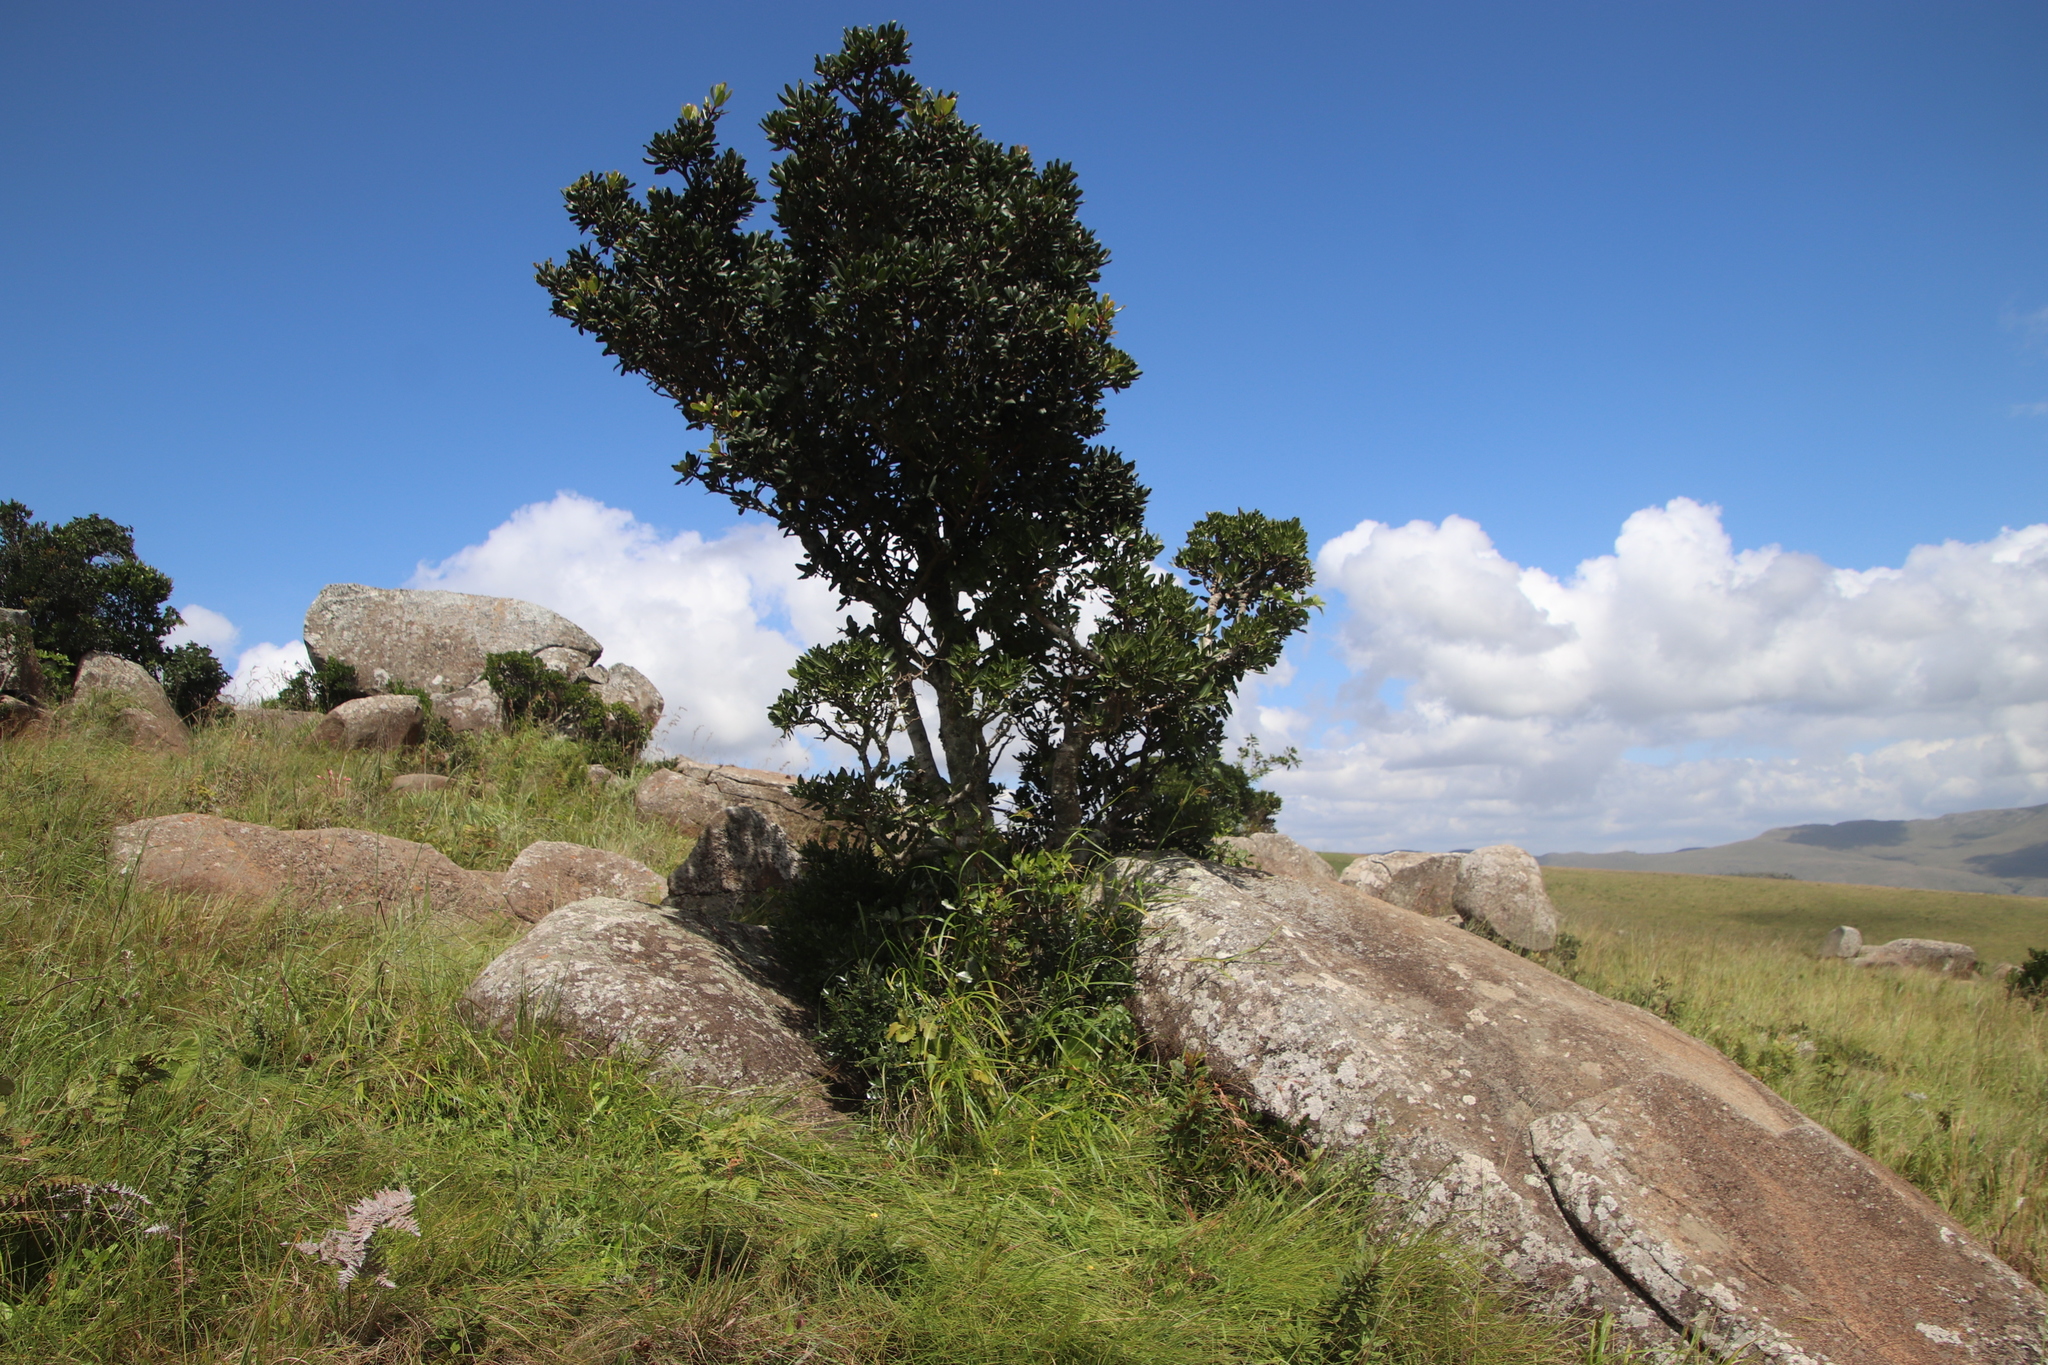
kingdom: Plantae
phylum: Tracheophyta
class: Magnoliopsida
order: Ericales
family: Primulaceae
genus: Myrsine
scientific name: Myrsine melanophloeos
